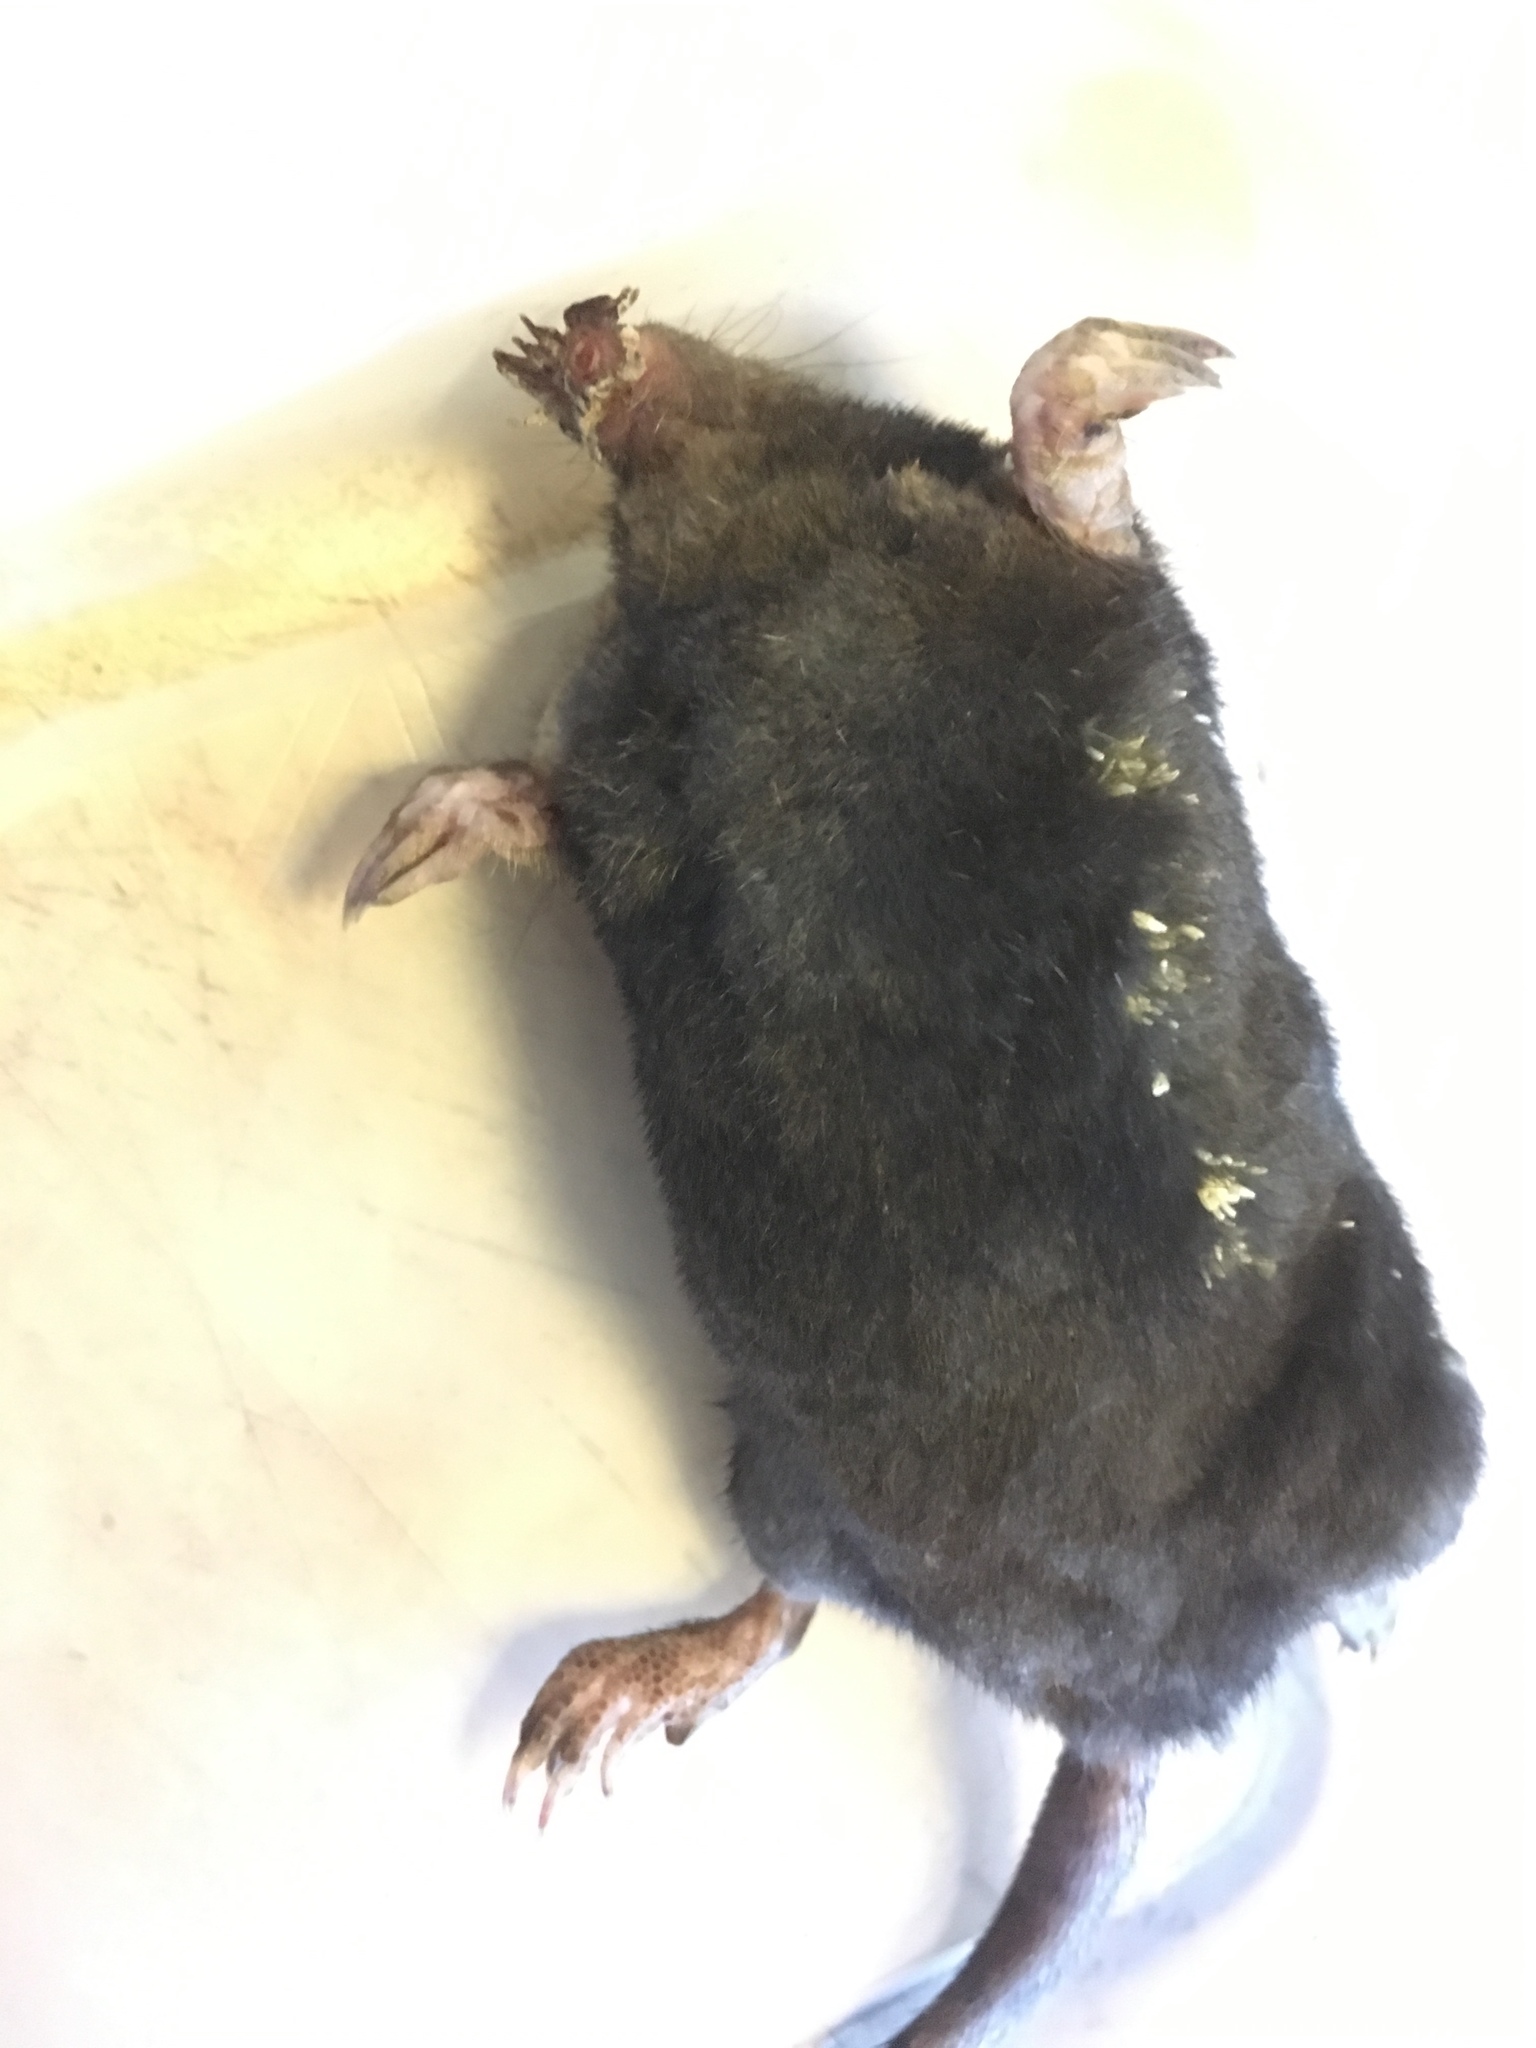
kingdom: Animalia
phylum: Chordata
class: Mammalia
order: Soricomorpha
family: Talpidae
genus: Condylura
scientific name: Condylura cristata
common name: Star-nosed mole
